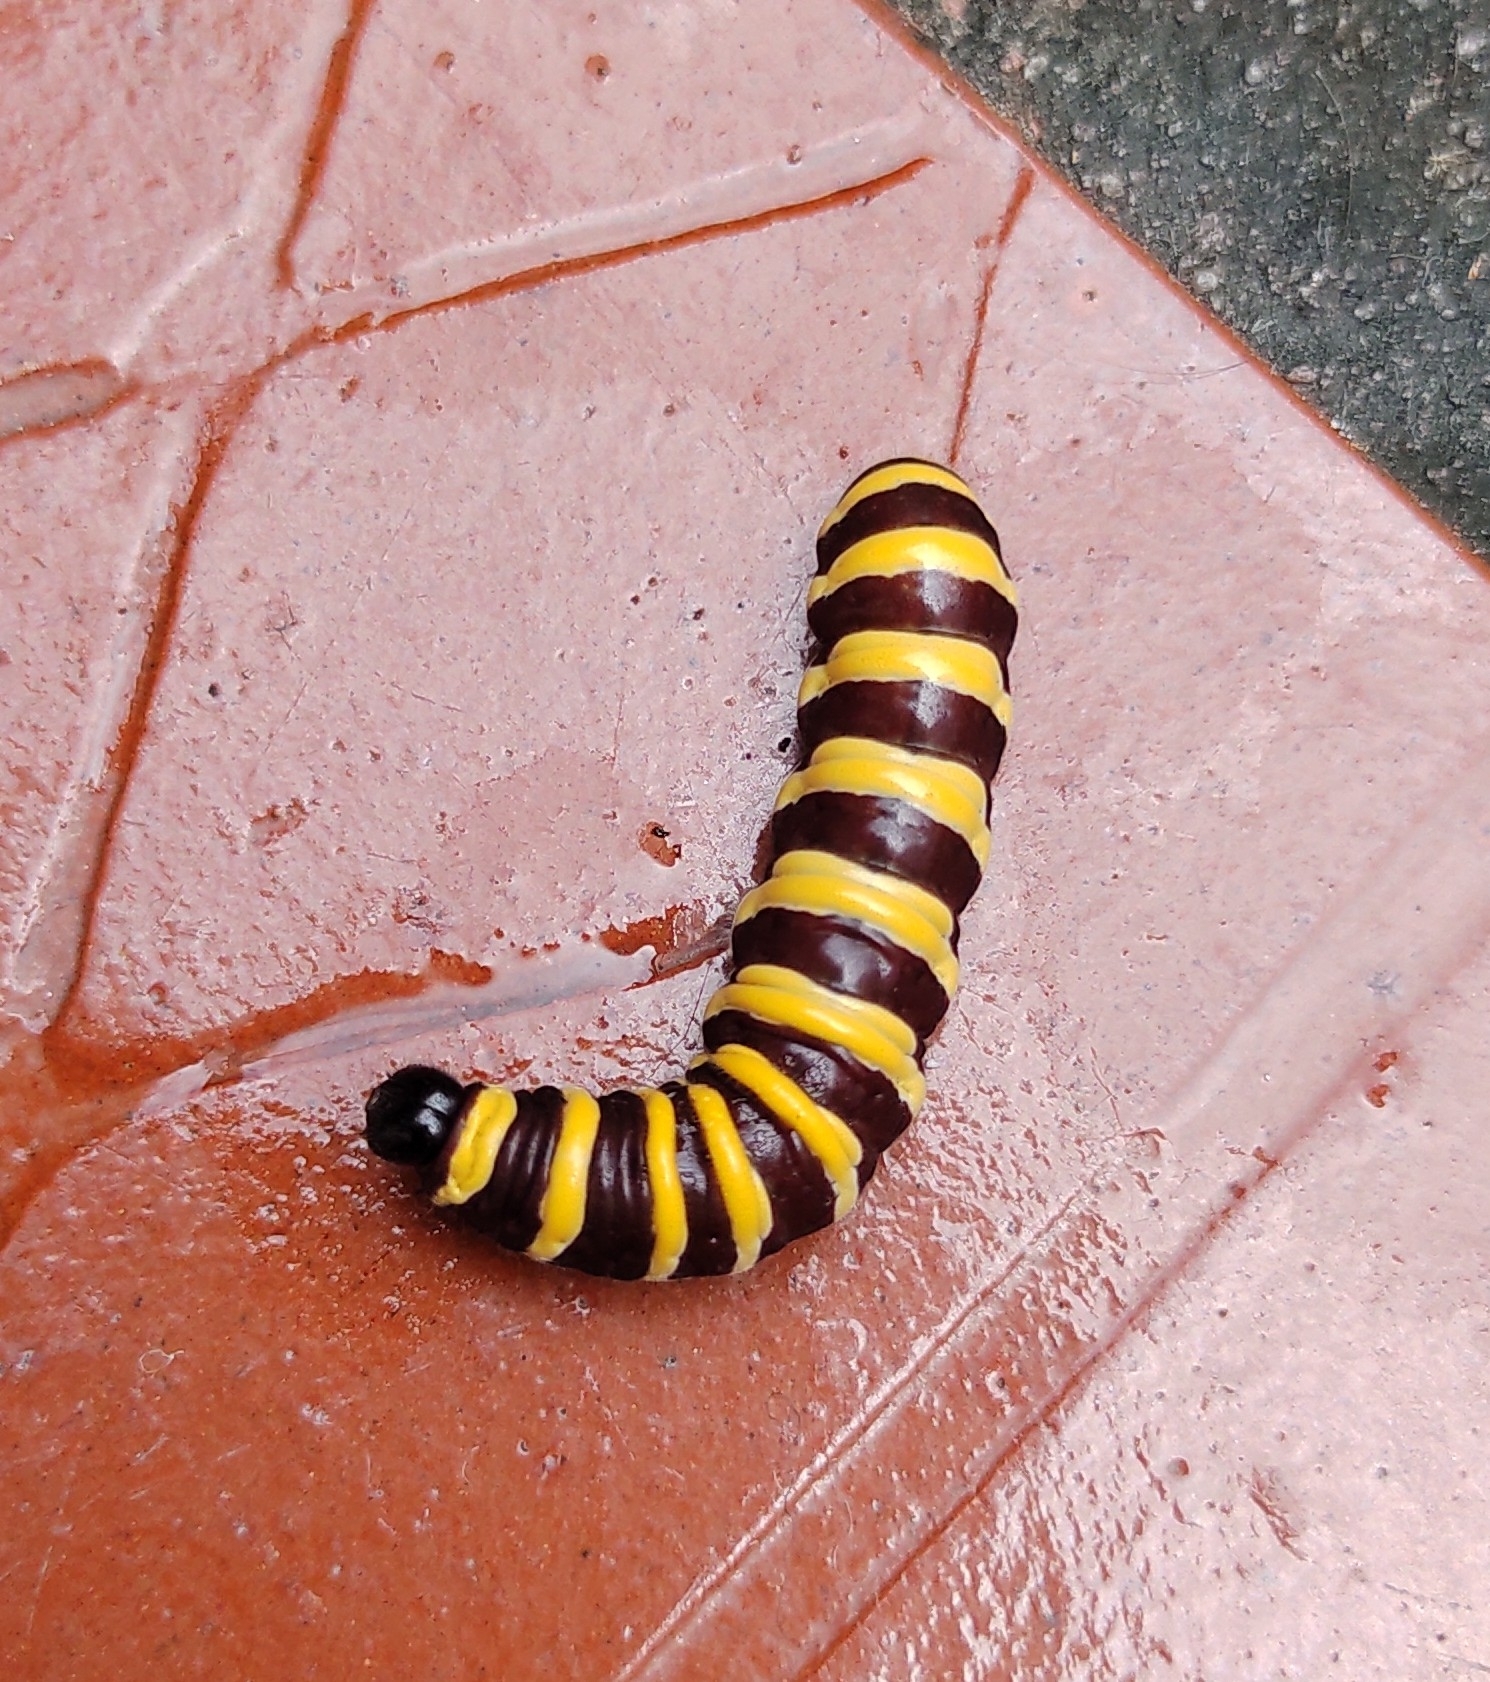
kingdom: Animalia
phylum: Arthropoda
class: Insecta
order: Lepidoptera
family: Nymphalidae
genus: Methona
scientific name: Methona confusa
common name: Confusa tigerwing
